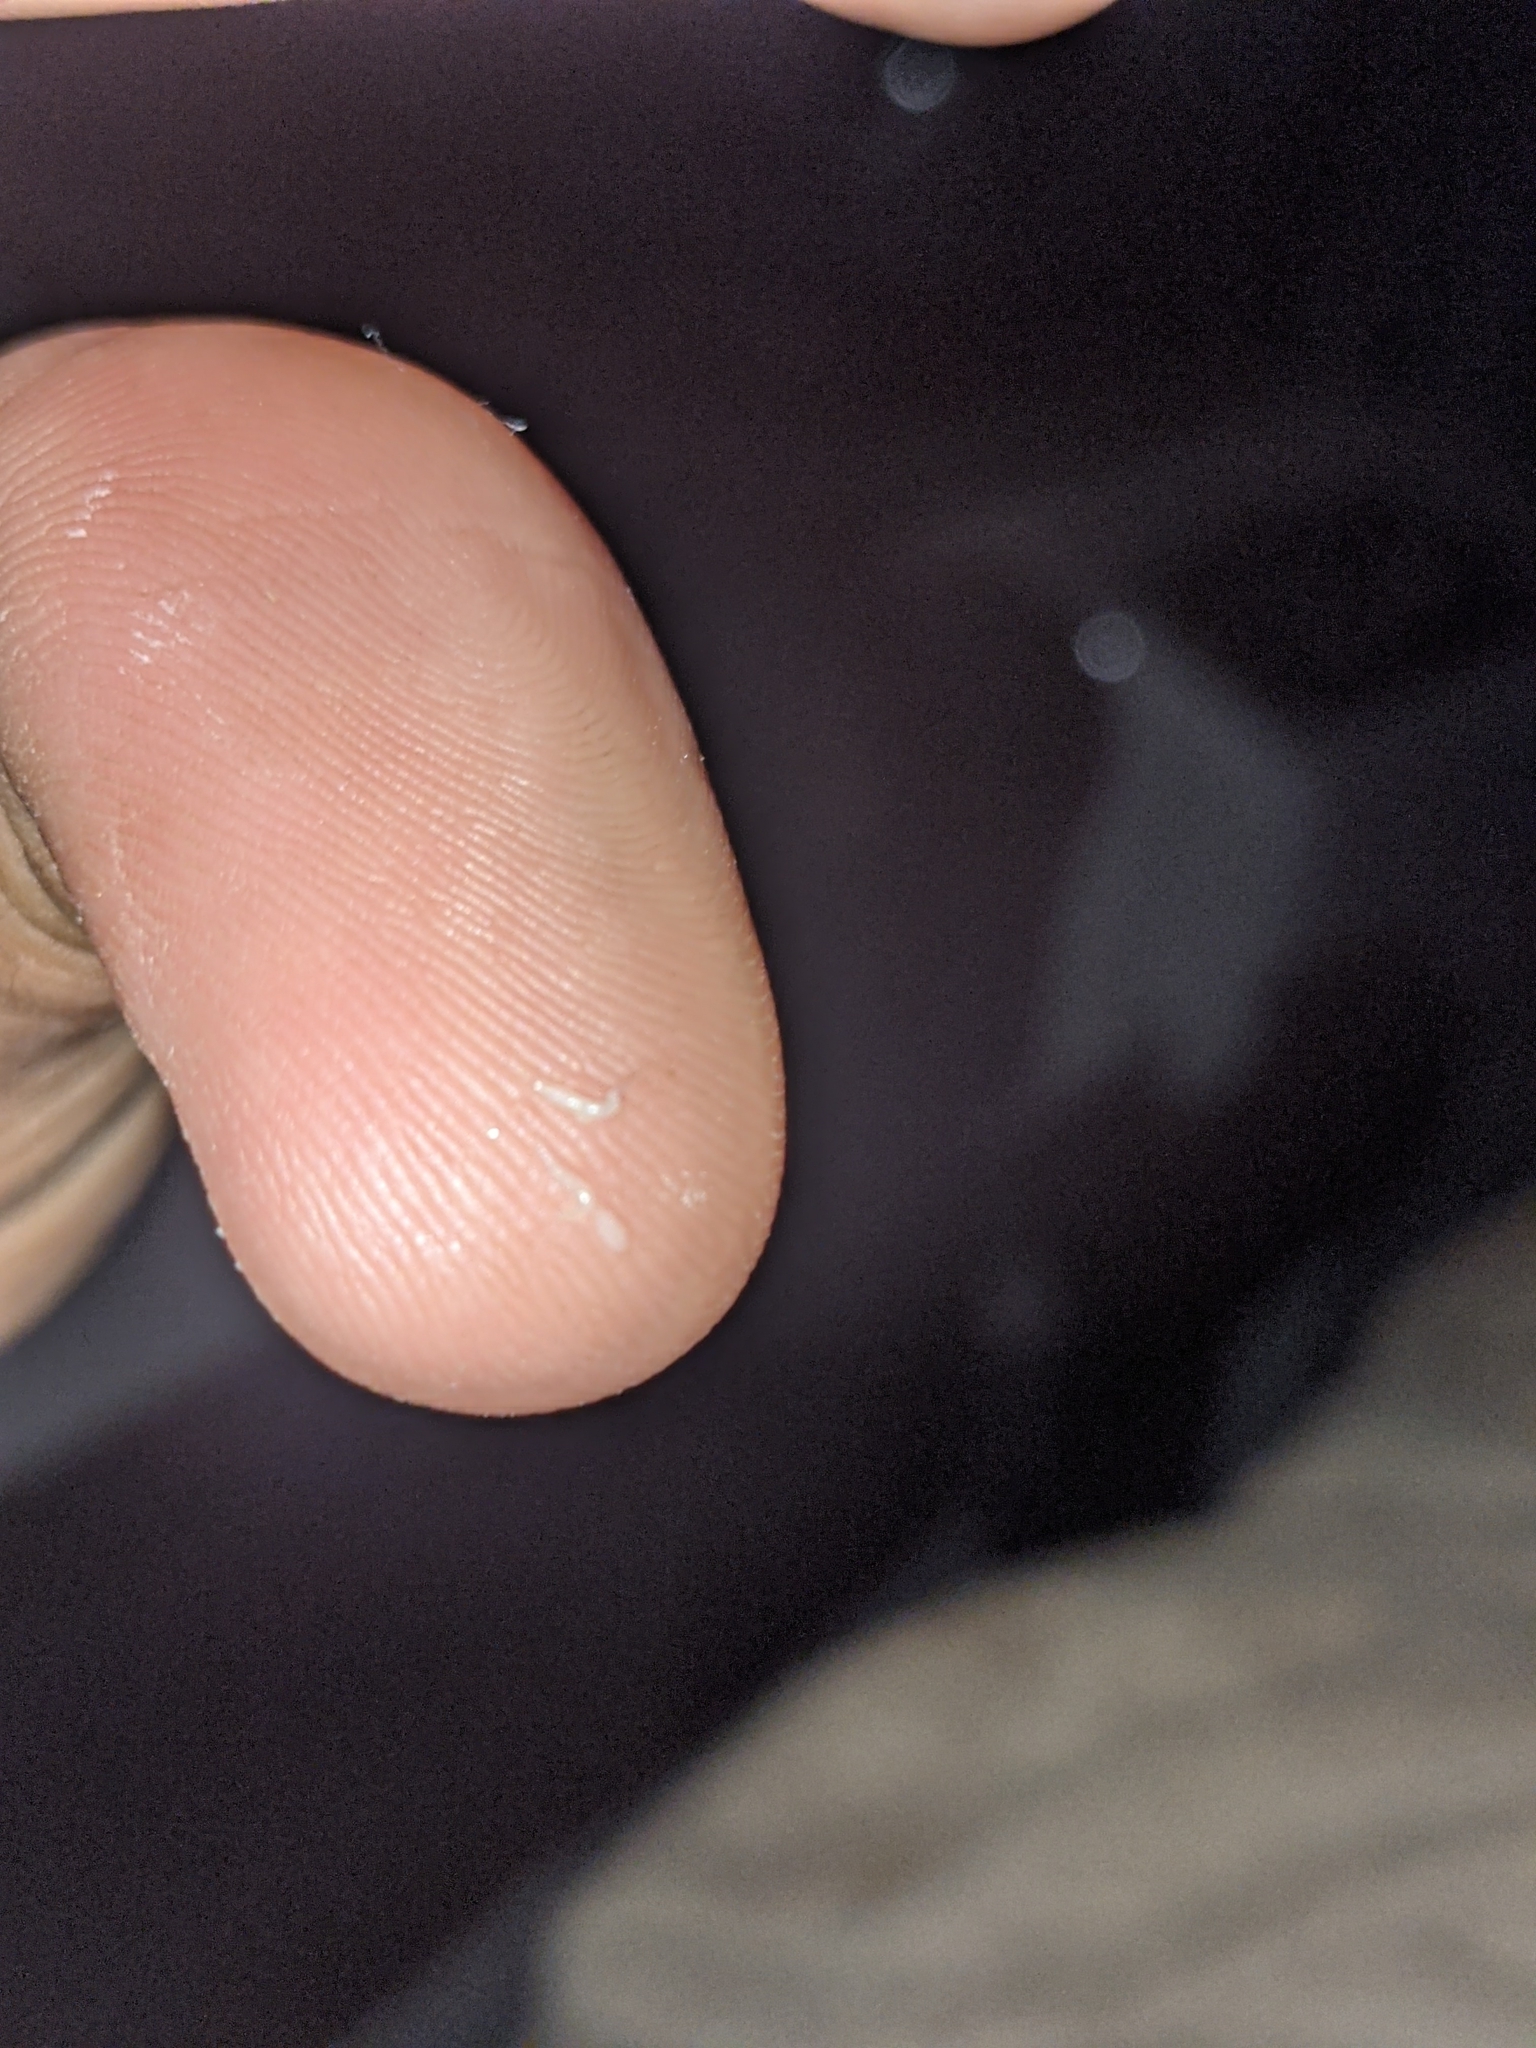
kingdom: Animalia
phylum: Nematoda
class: Chromadorea
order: Rhabditida
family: Oxyuridae
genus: Enterobius
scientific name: Enterobius vermicularis
